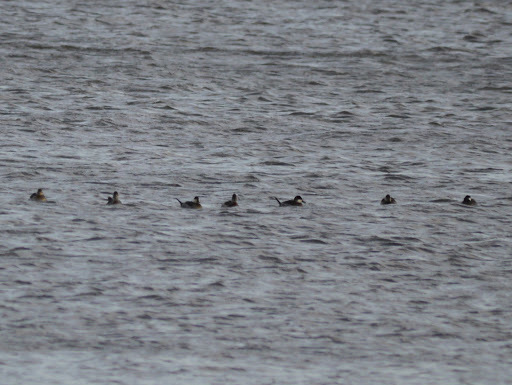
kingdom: Animalia
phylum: Chordata
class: Aves
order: Anseriformes
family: Anatidae
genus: Oxyura
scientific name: Oxyura jamaicensis
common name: Ruddy duck
